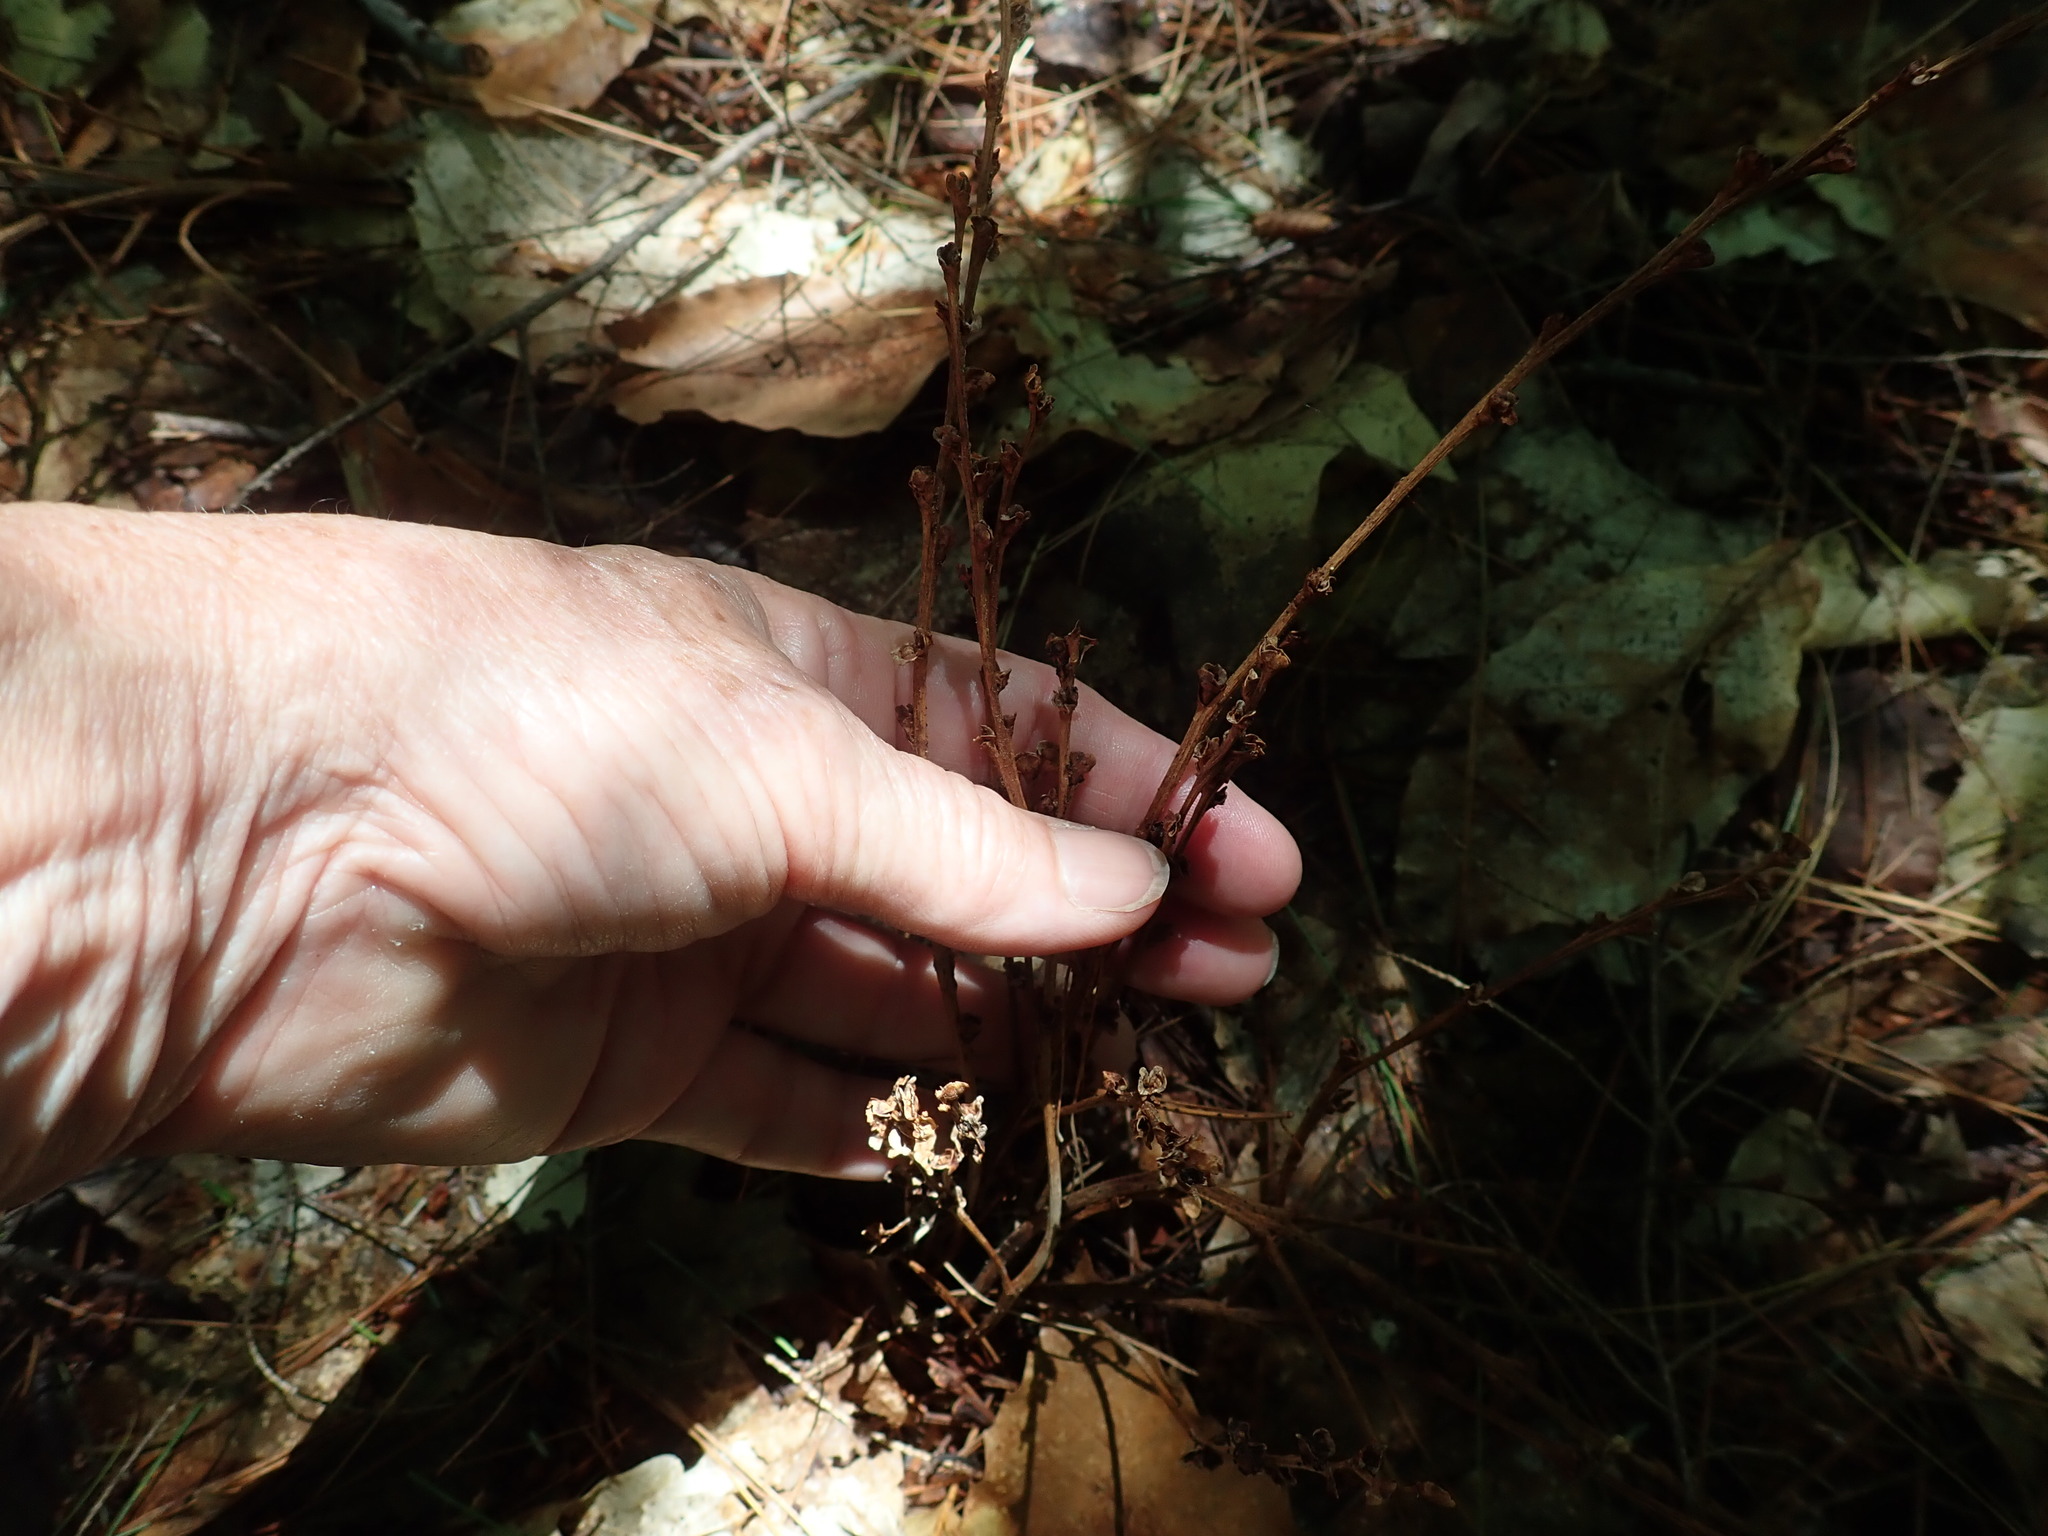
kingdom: Plantae
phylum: Tracheophyta
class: Magnoliopsida
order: Lamiales
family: Orobanchaceae
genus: Epifagus
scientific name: Epifagus virginiana
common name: Beechdrops
